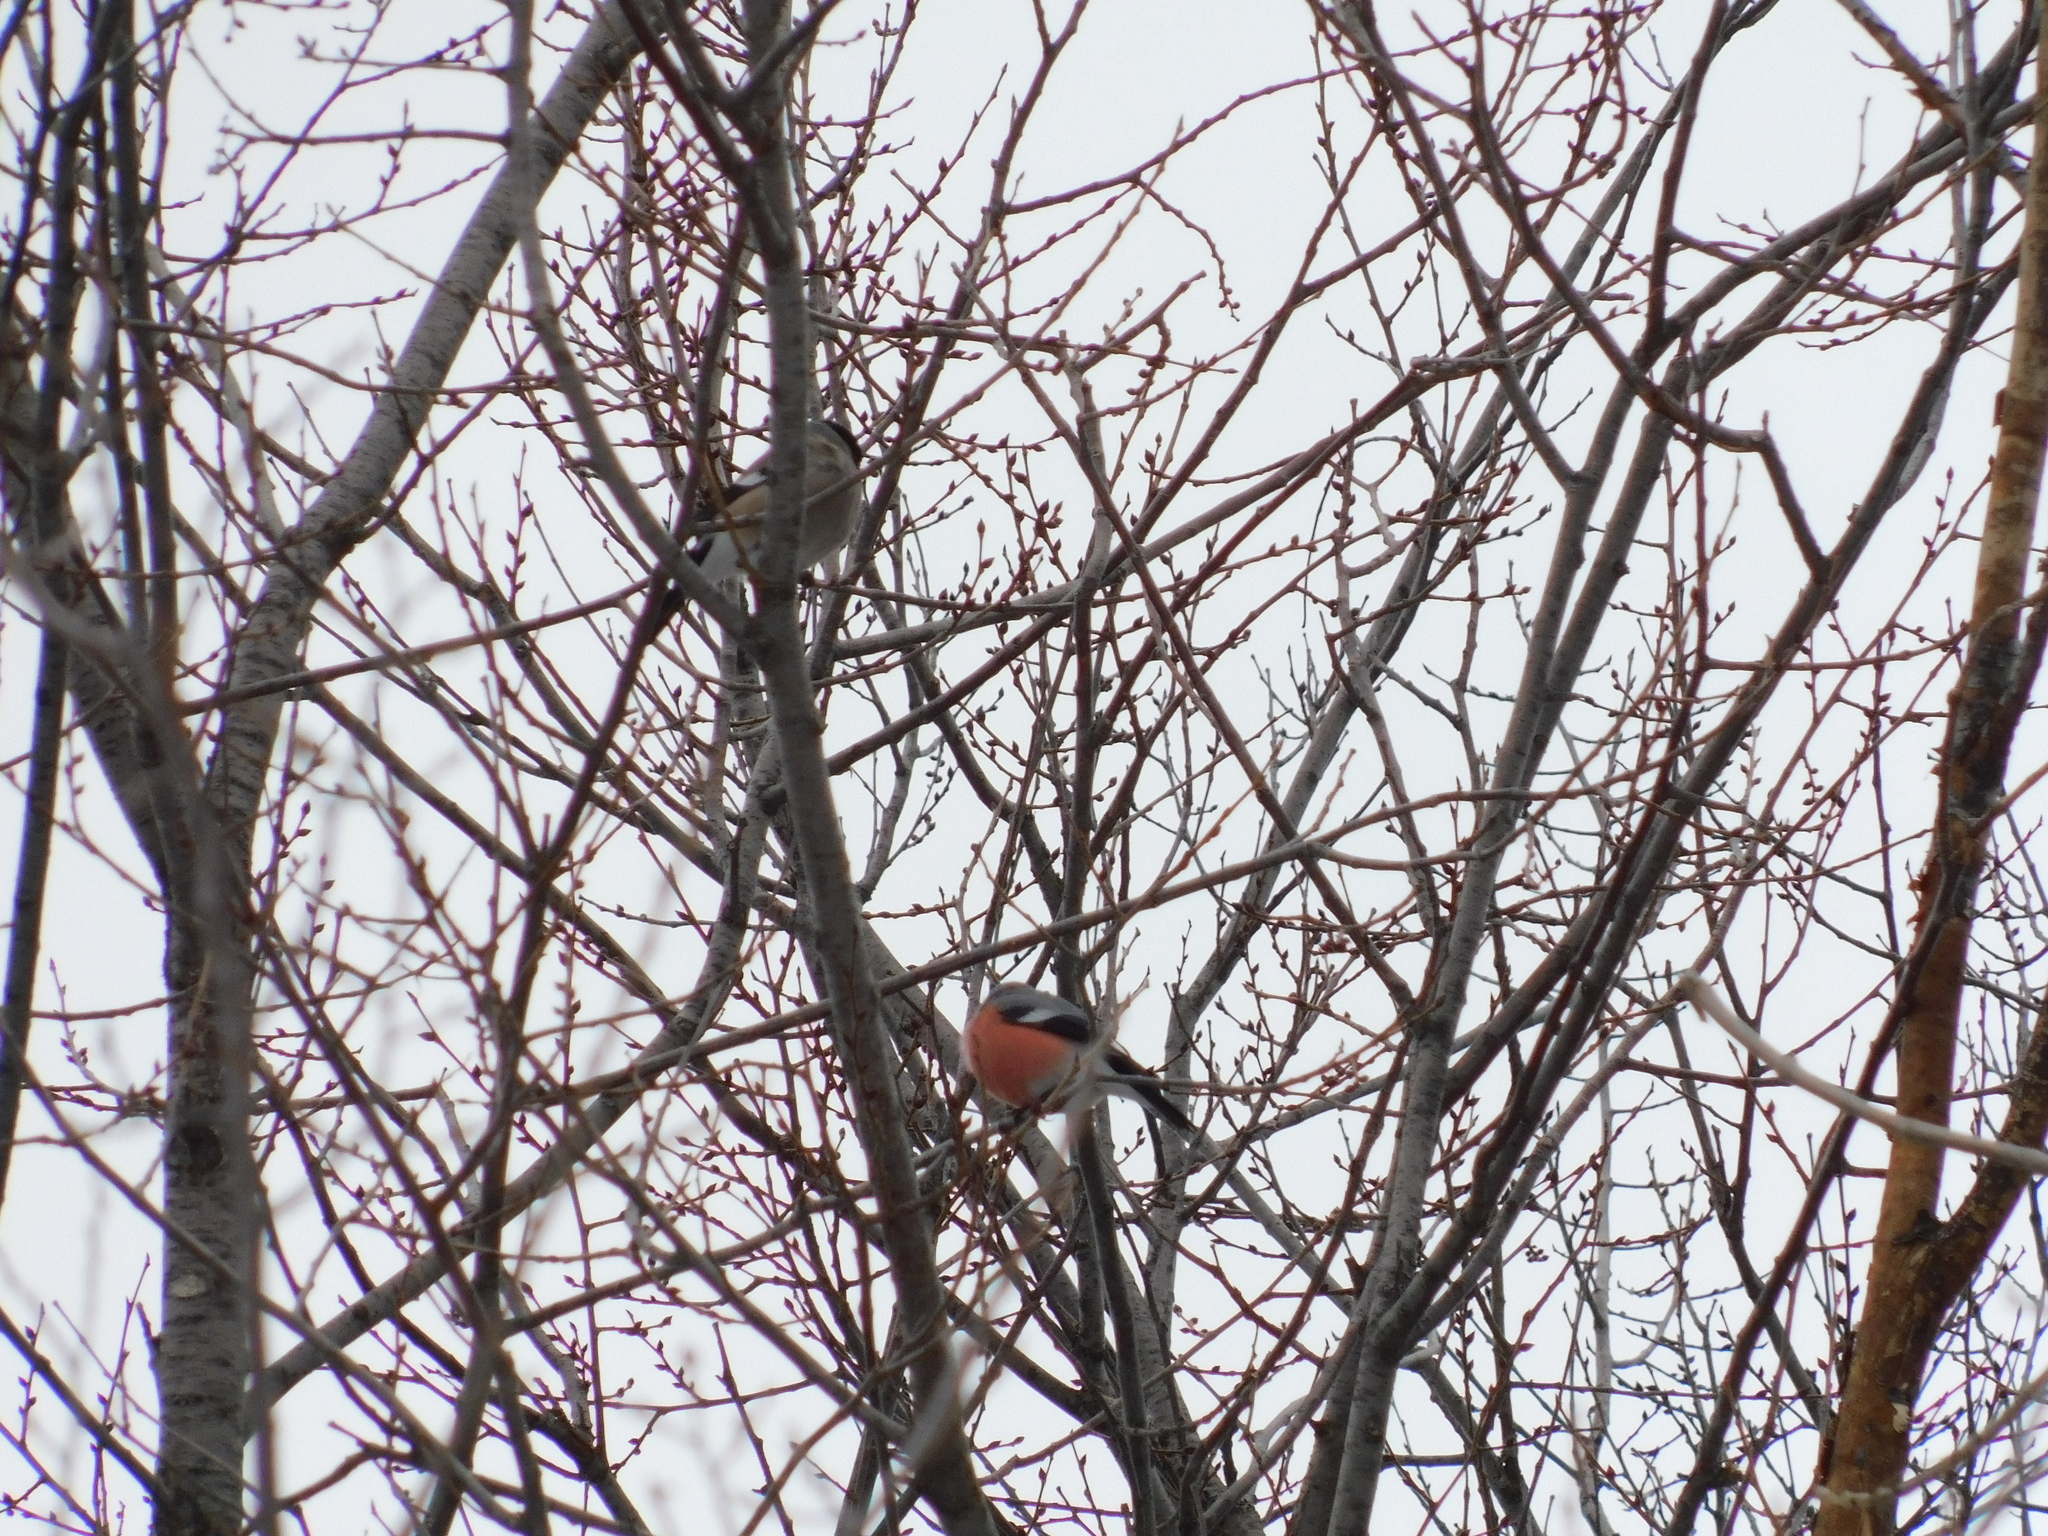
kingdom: Animalia
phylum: Chordata
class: Aves
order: Passeriformes
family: Fringillidae
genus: Pyrrhula
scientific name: Pyrrhula pyrrhula
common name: Eurasian bullfinch
